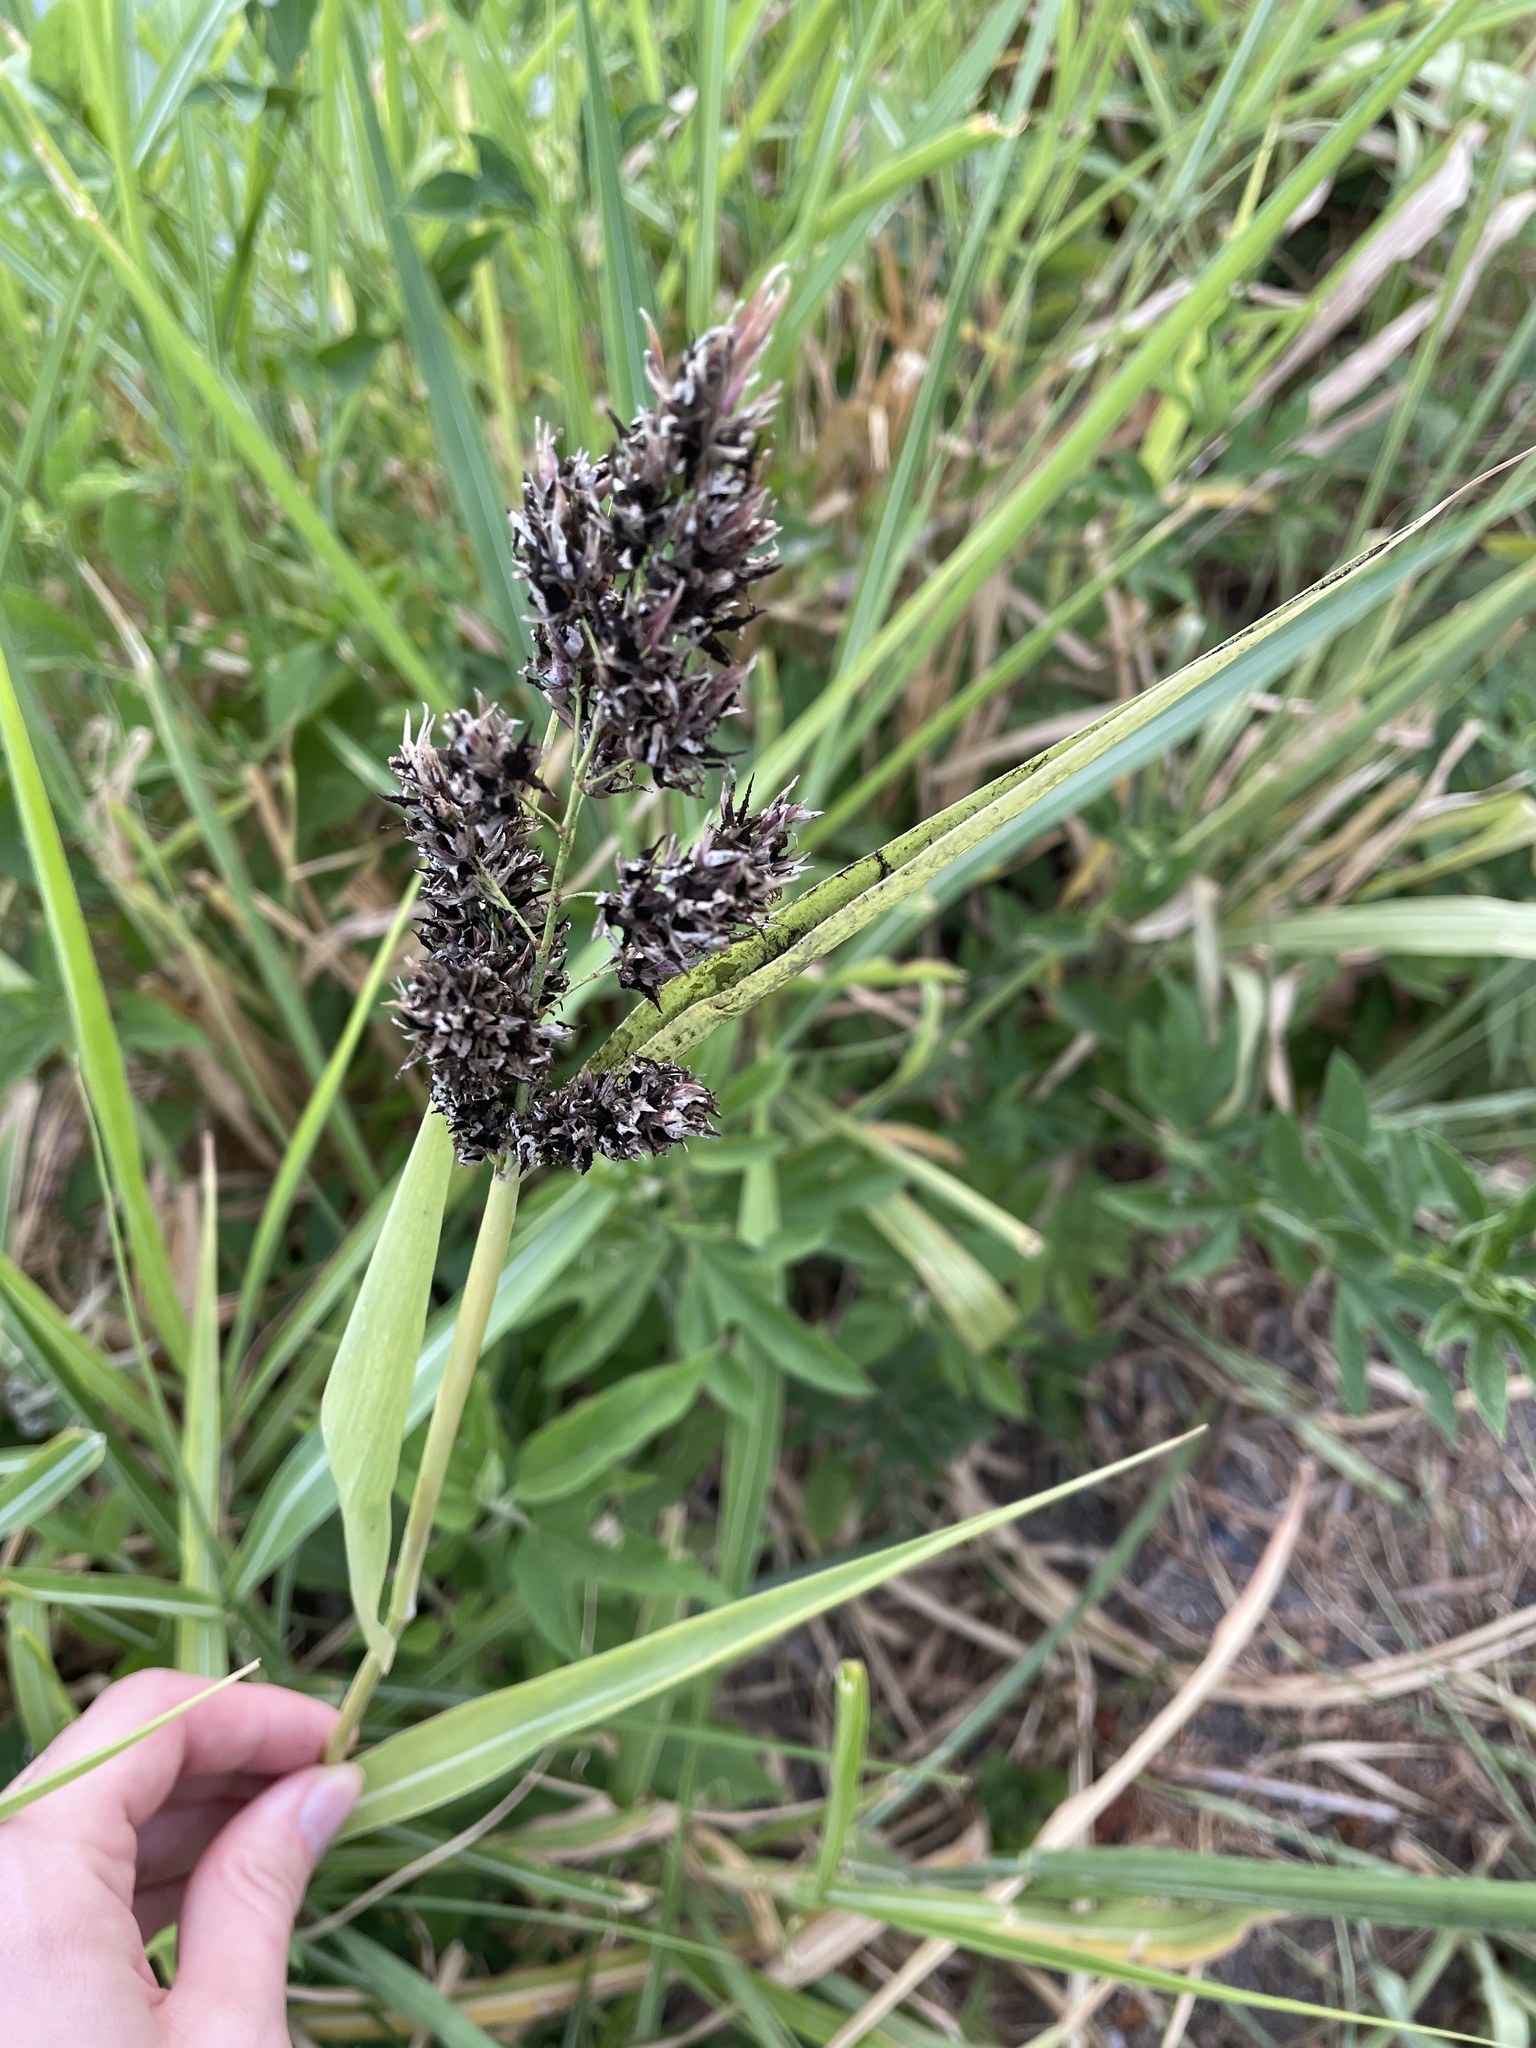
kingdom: Plantae
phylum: Tracheophyta
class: Liliopsida
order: Poales
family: Poaceae
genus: Sorghum
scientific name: Sorghum halepense
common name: Johnson-grass
